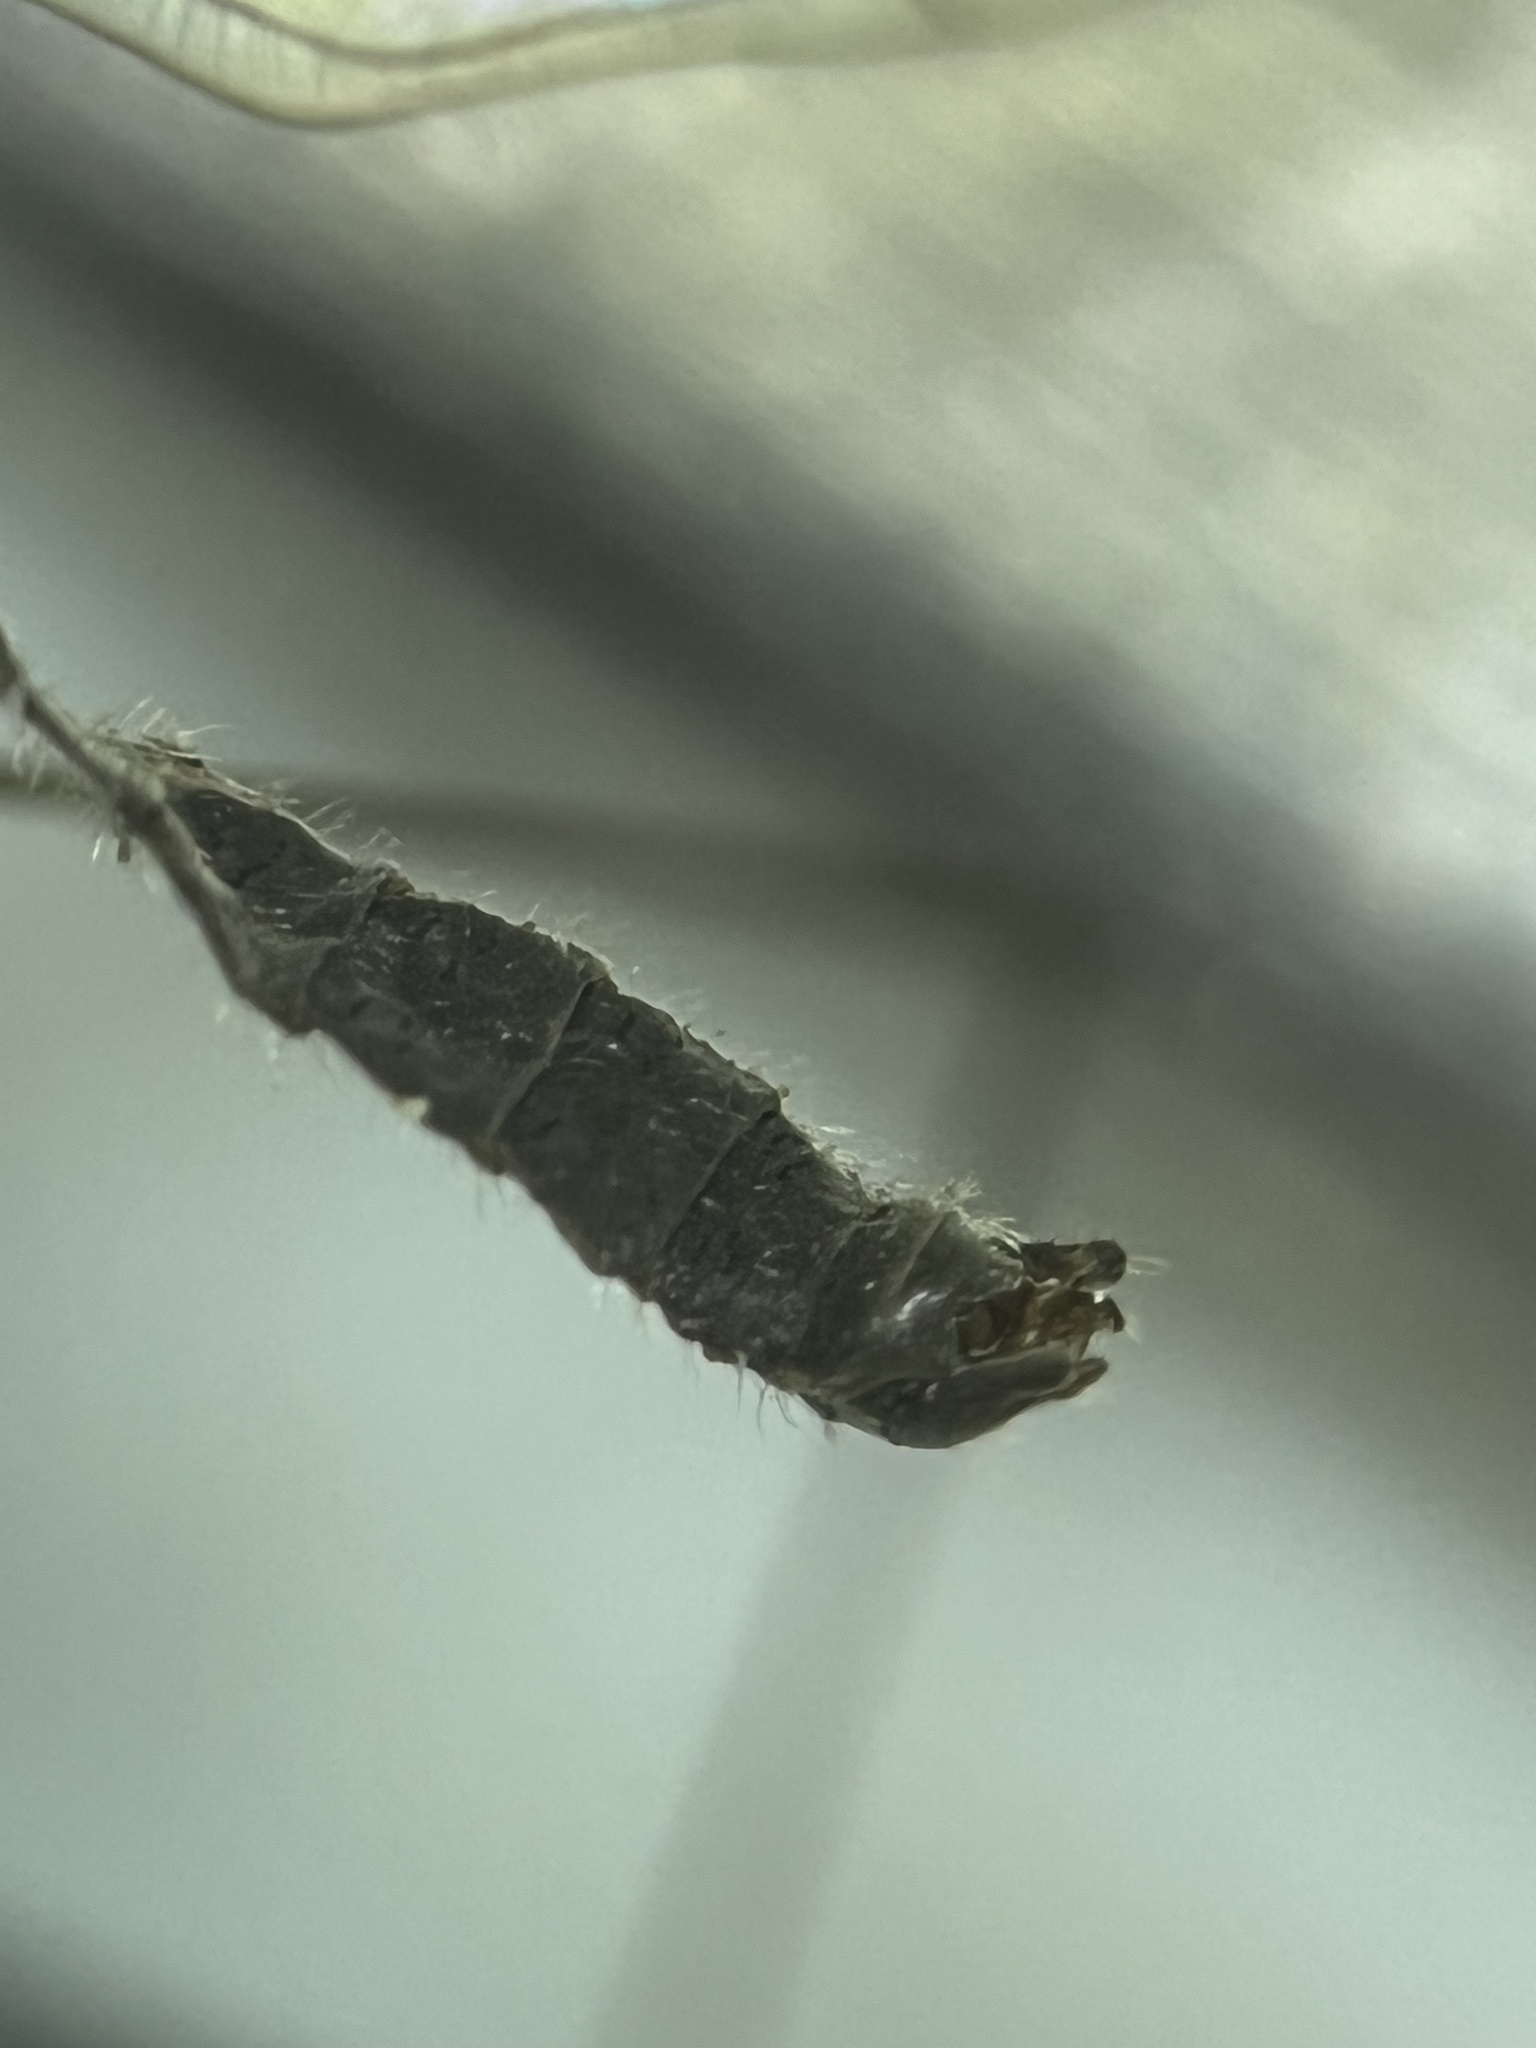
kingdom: Animalia
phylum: Arthropoda
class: Insecta
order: Diptera
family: Pediciidae
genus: Dicranota
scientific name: Dicranota neomexicana
